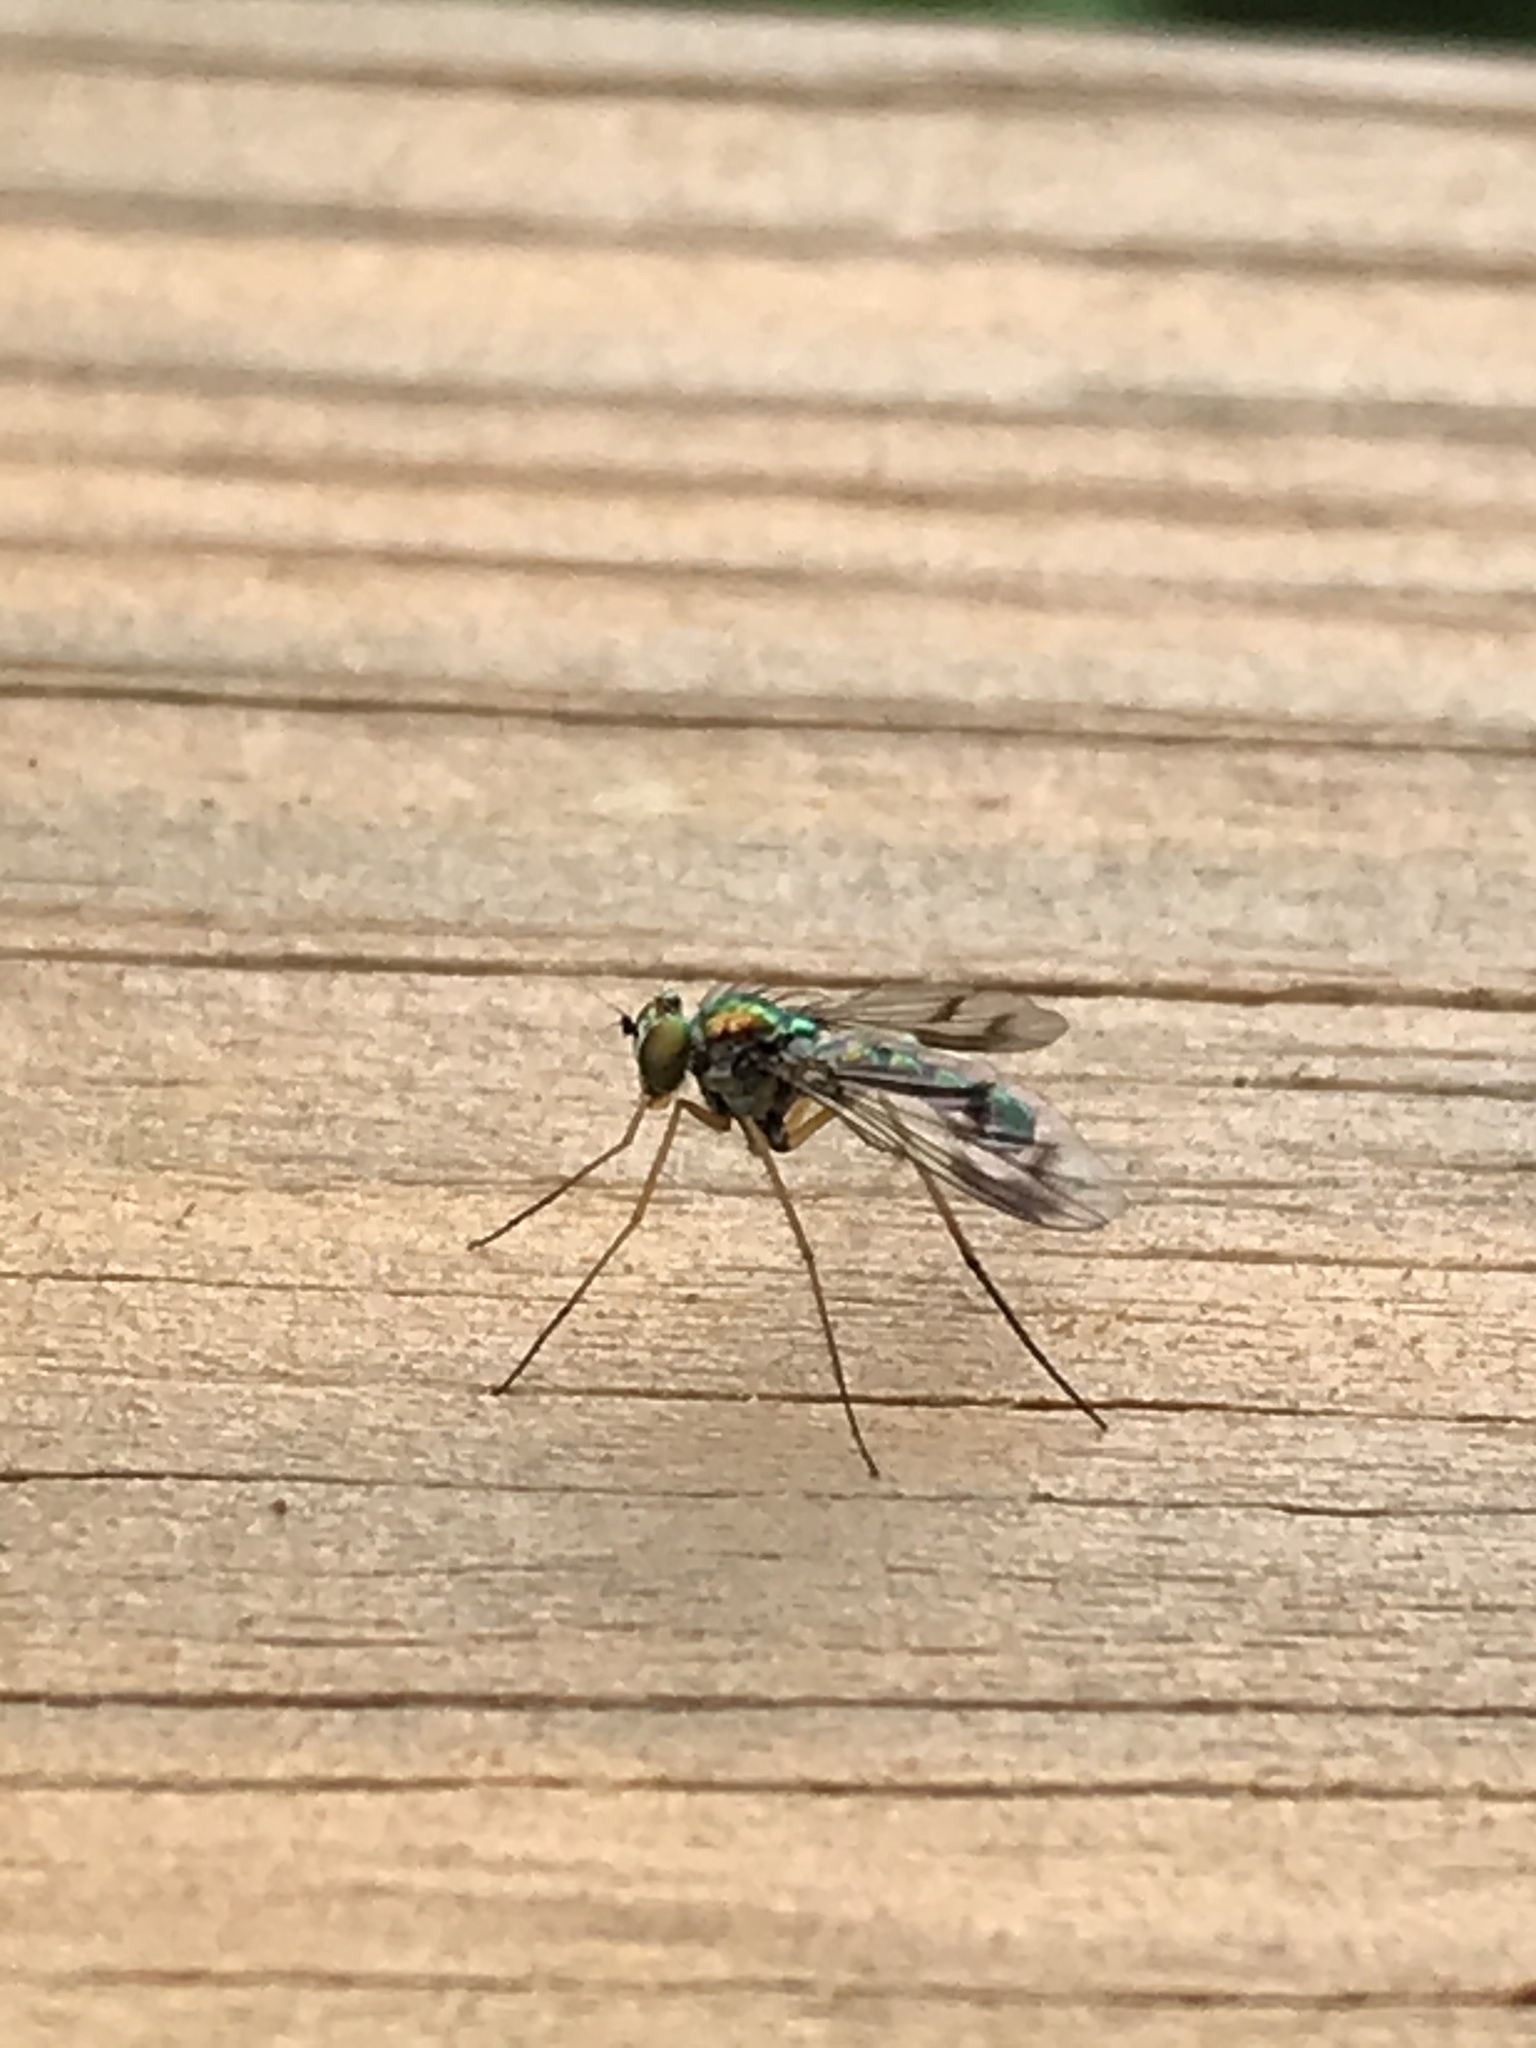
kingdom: Animalia
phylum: Arthropoda
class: Insecta
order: Diptera
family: Dolichopodidae
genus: Condylostylus
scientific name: Condylostylus viridicoxa
